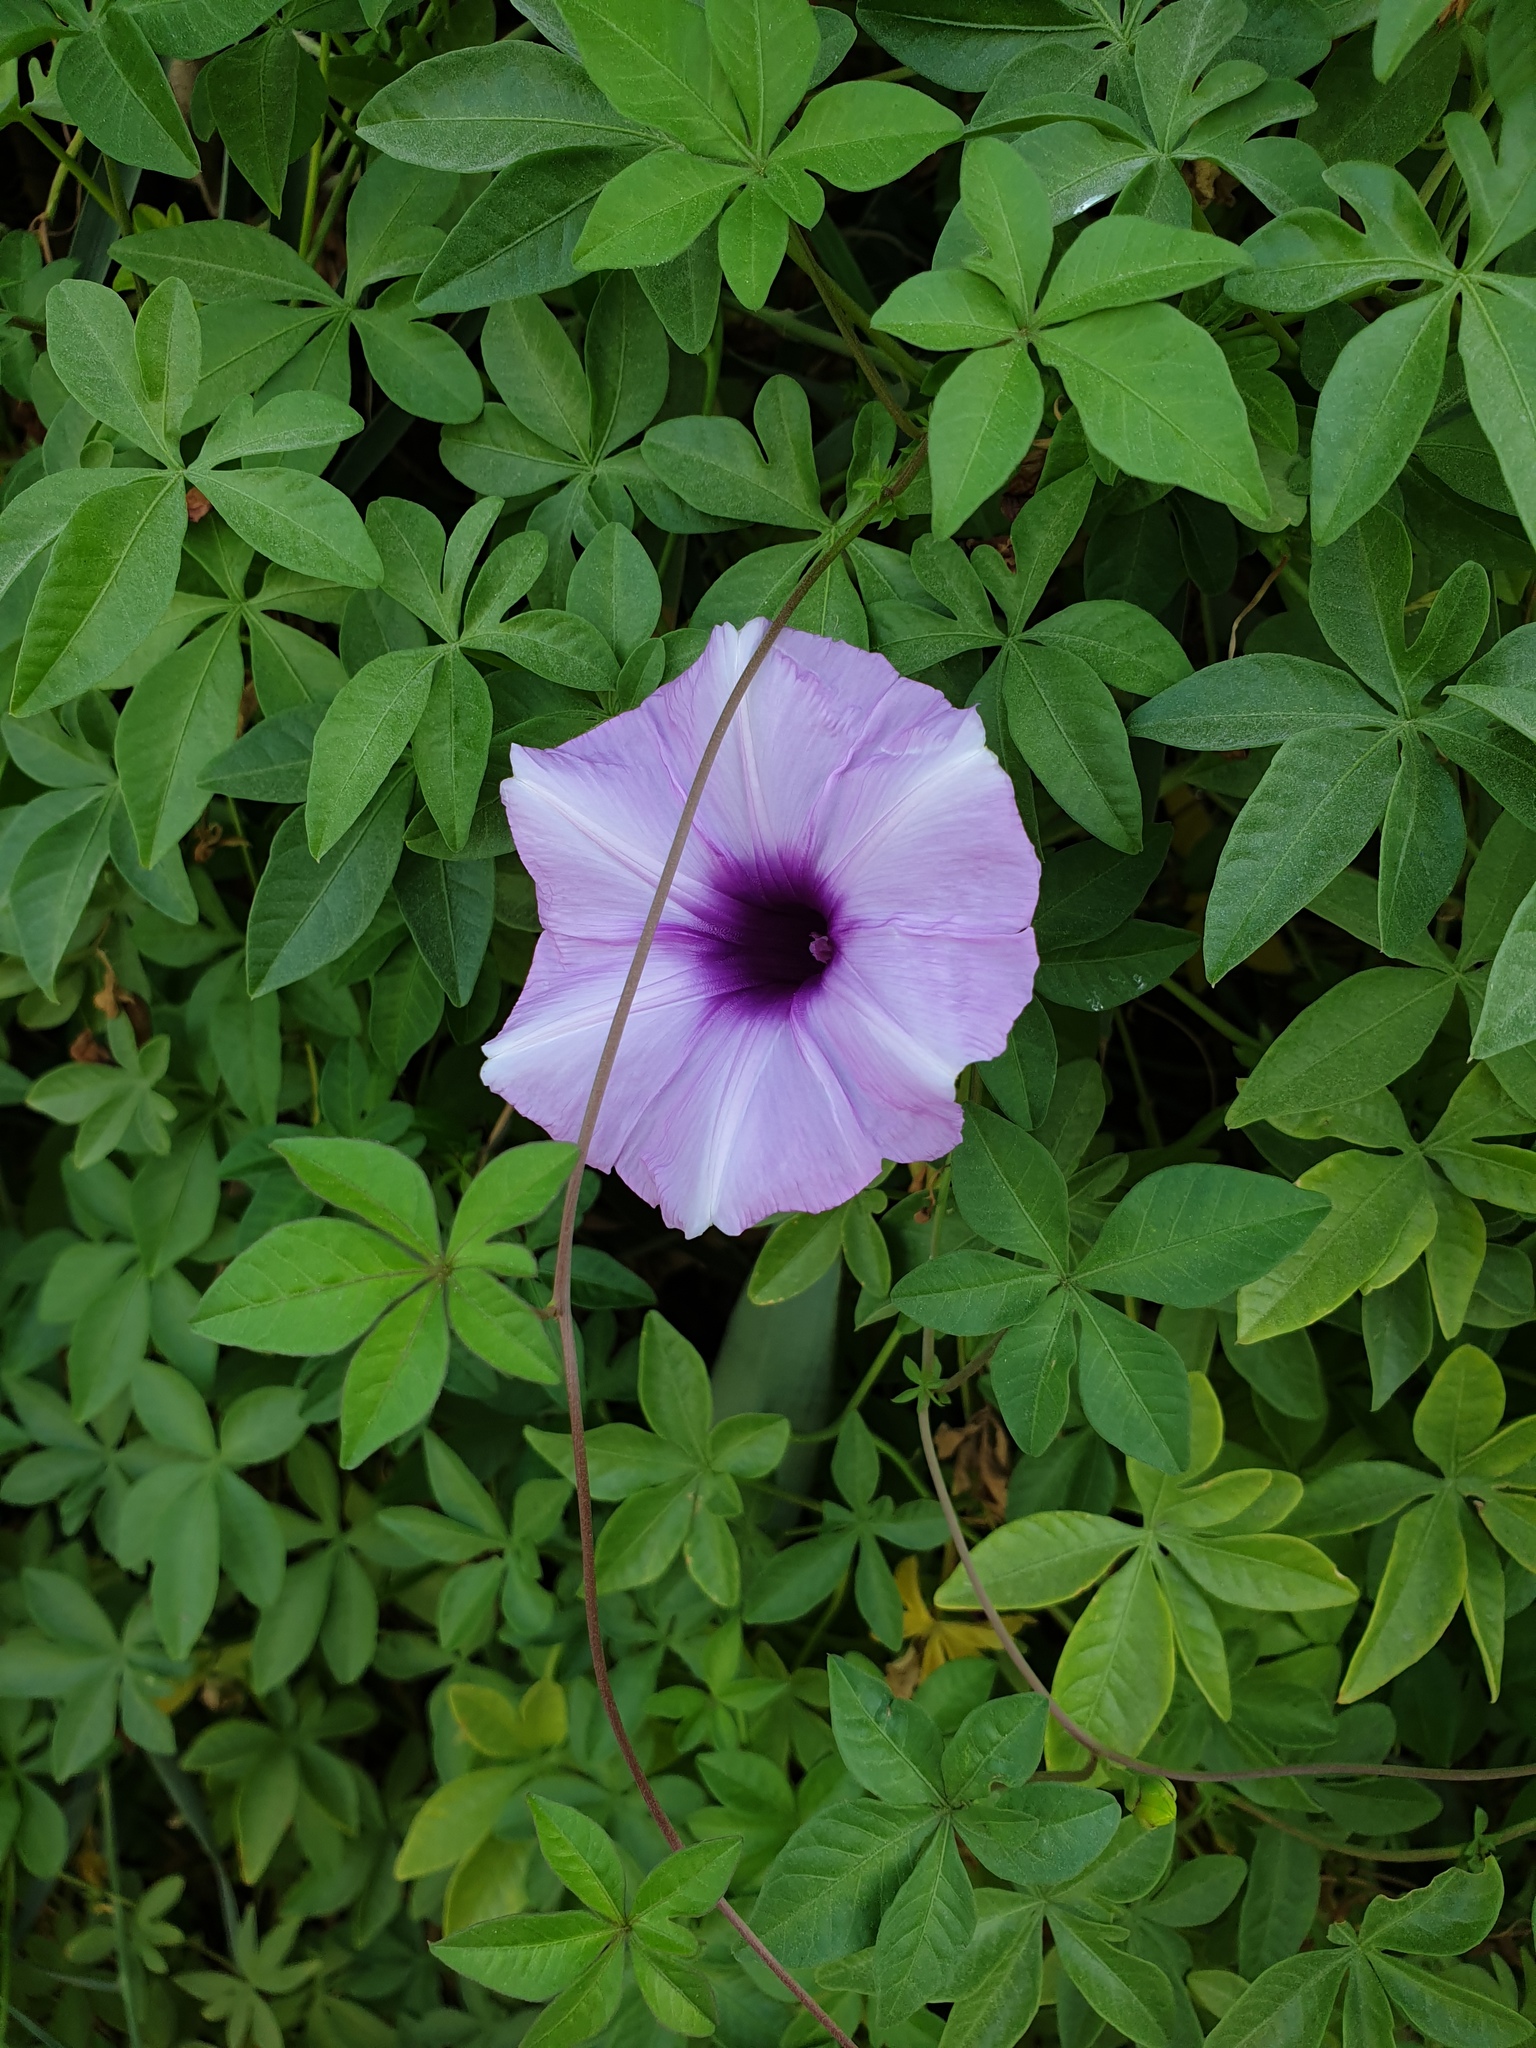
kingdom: Plantae
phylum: Tracheophyta
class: Magnoliopsida
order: Solanales
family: Convolvulaceae
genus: Ipomoea
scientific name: Ipomoea cairica
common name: Mile a minute vine
